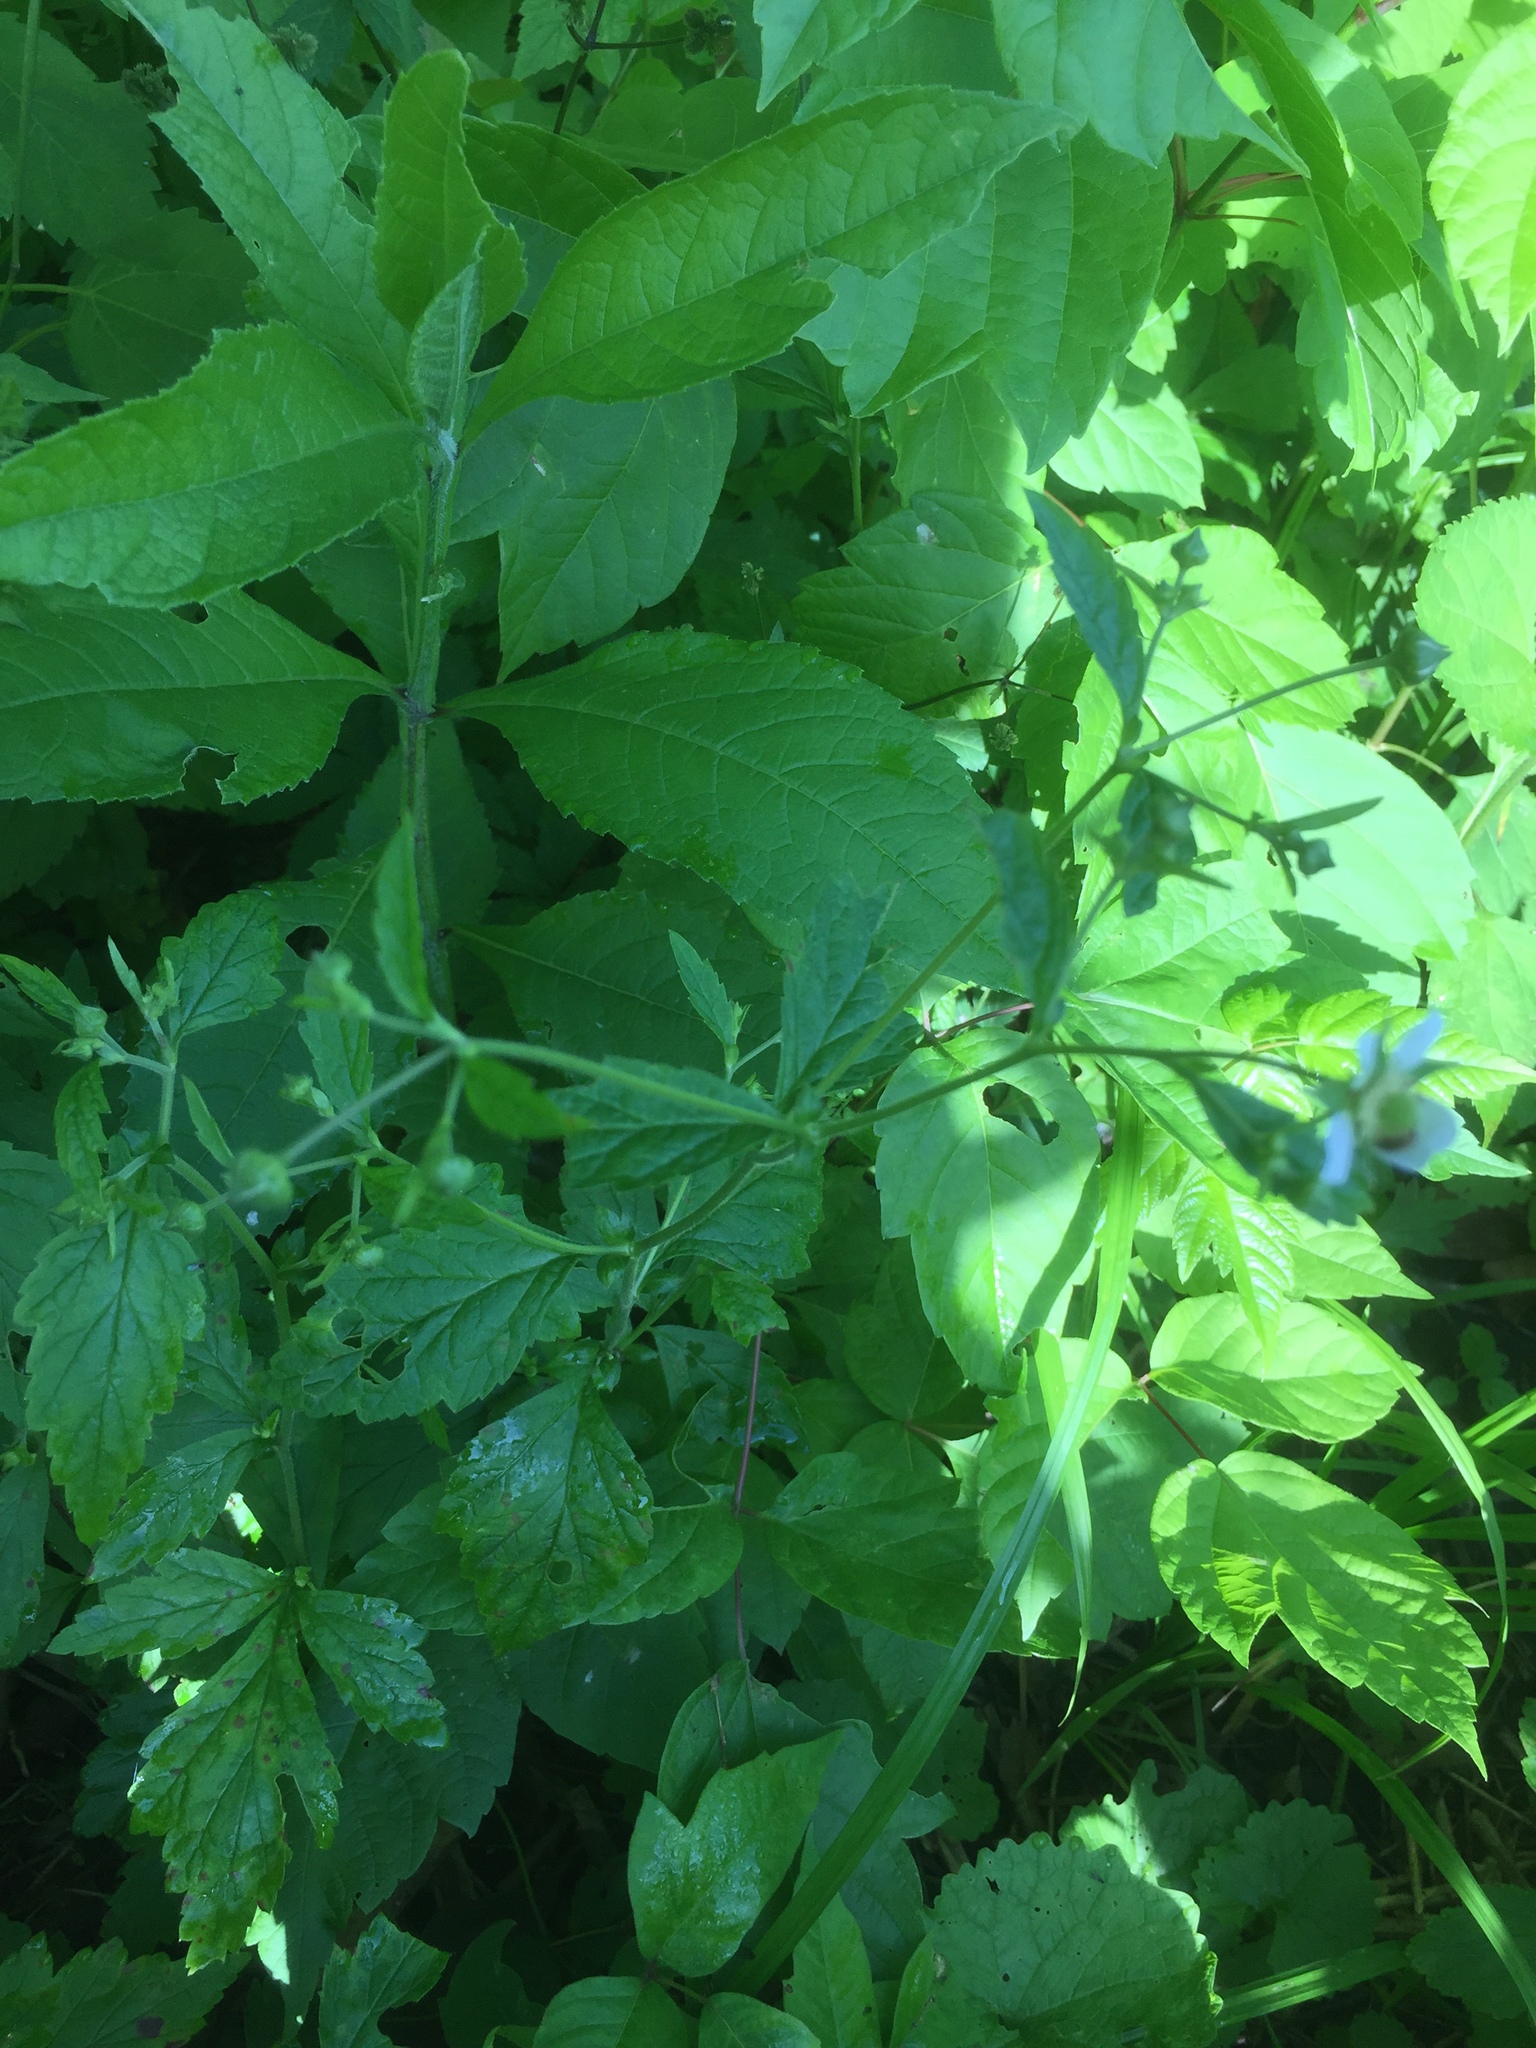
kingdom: Plantae
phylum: Tracheophyta
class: Magnoliopsida
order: Rosales
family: Rosaceae
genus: Geum
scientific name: Geum canadense
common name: White avens
